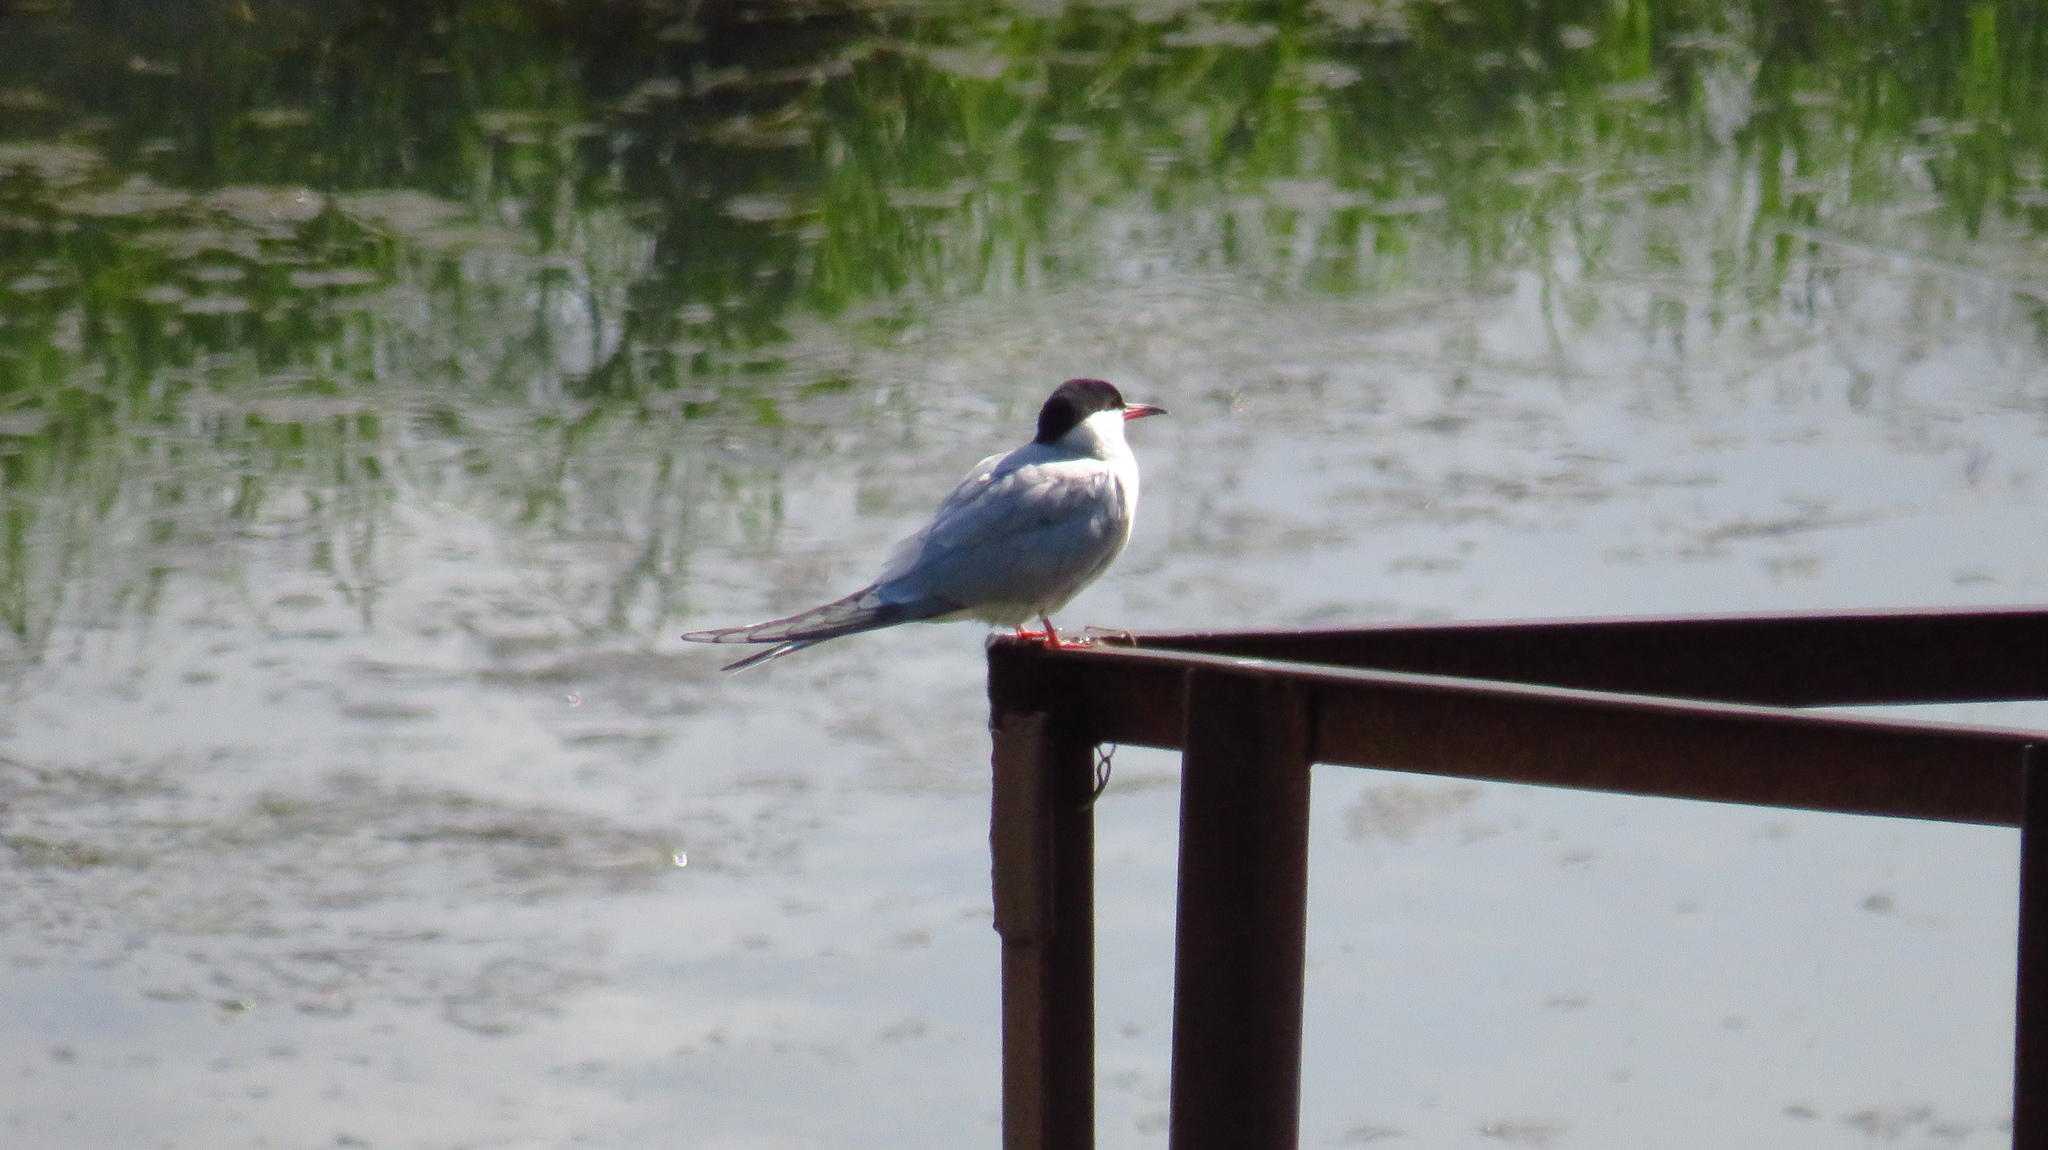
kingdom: Animalia
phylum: Chordata
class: Aves
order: Charadriiformes
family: Laridae
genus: Sterna
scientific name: Sterna hirundo
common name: Common tern
